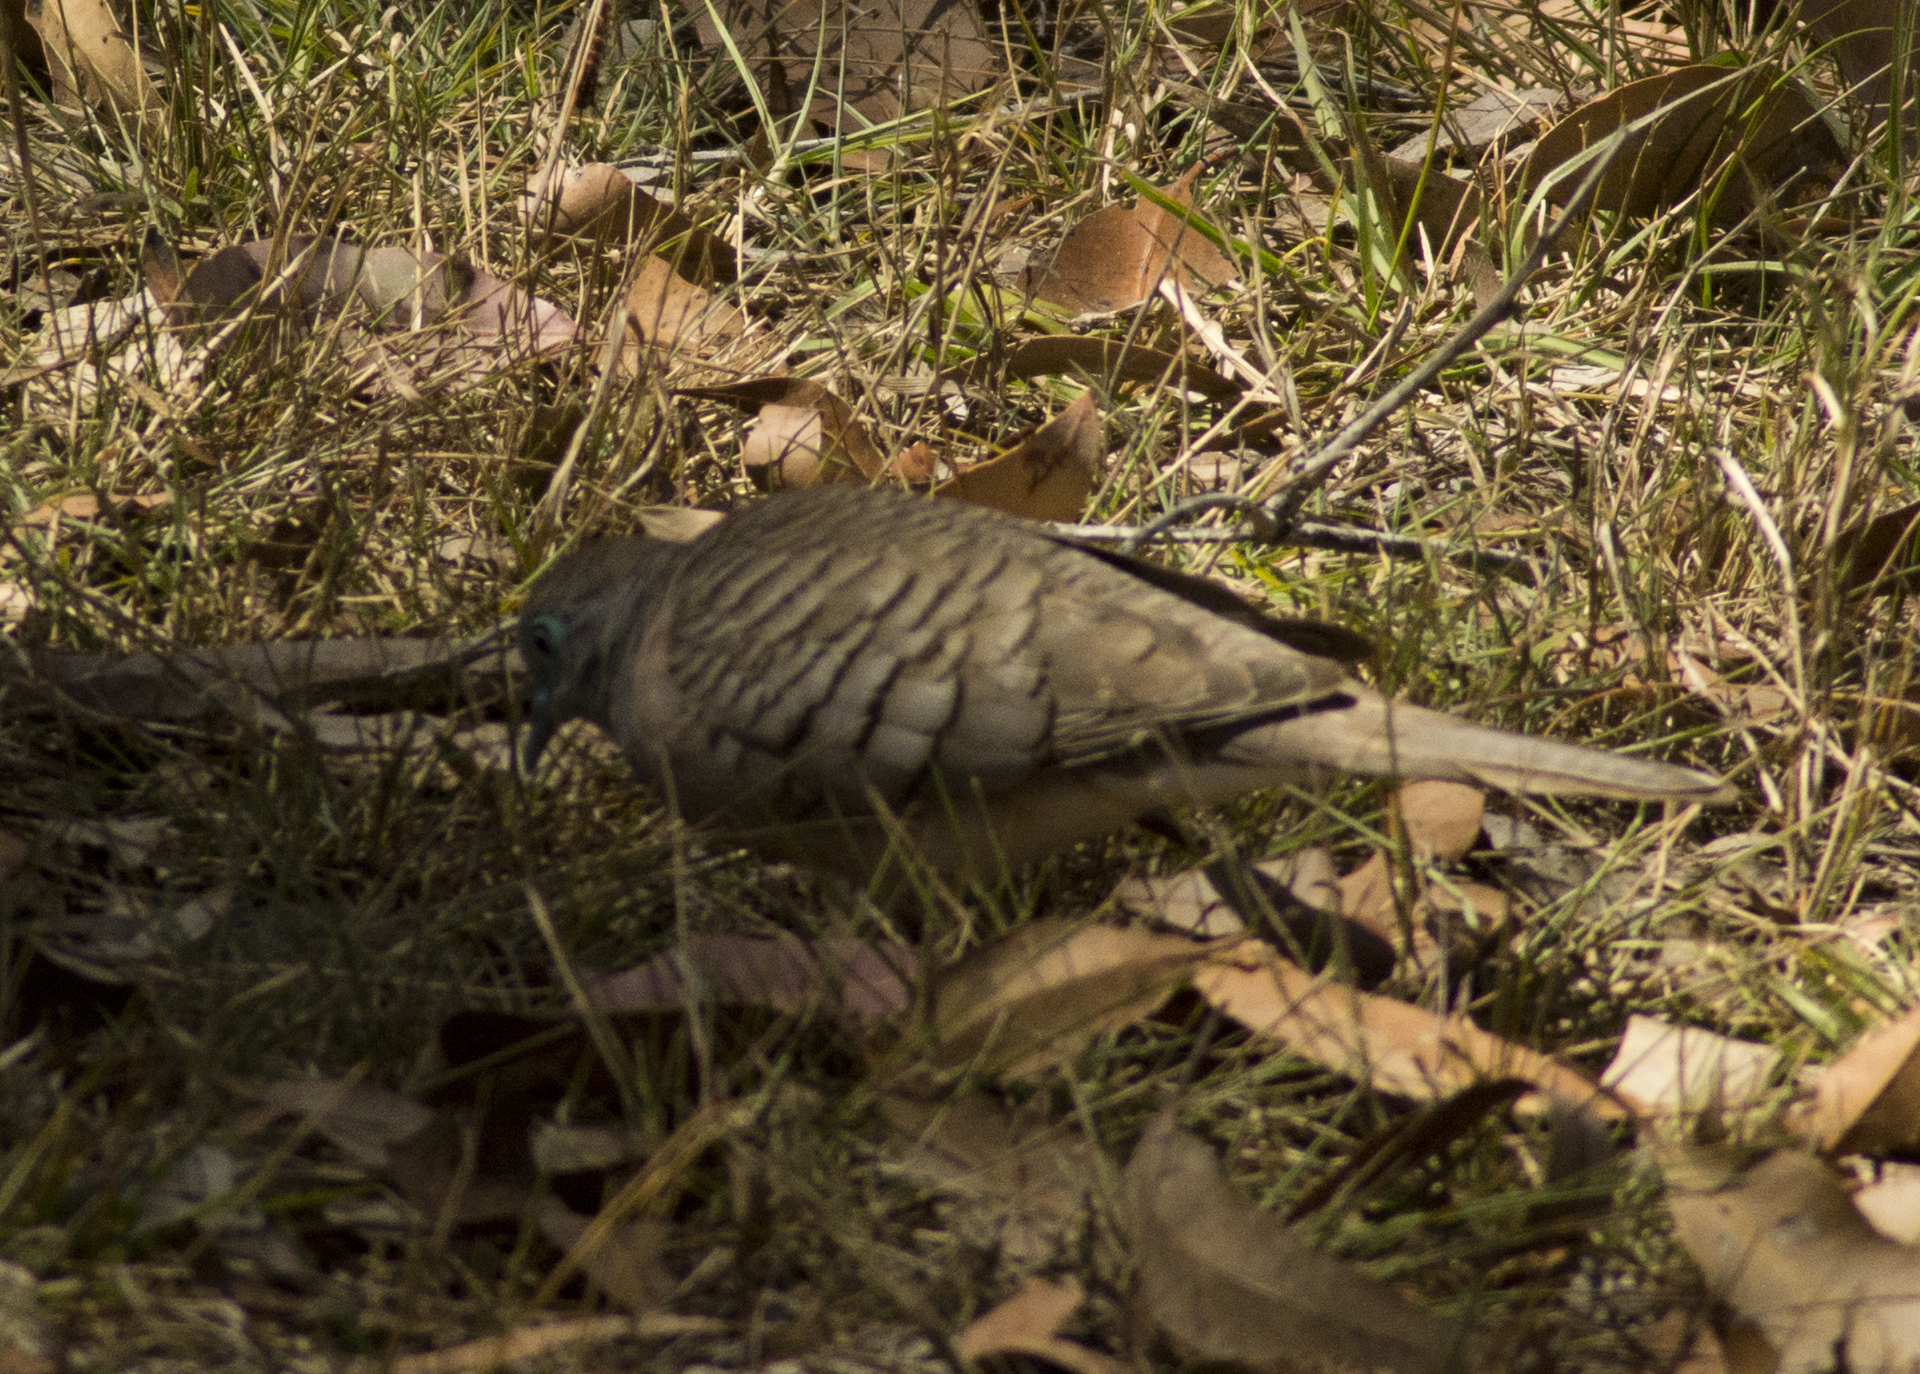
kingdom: Animalia
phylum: Chordata
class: Aves
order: Columbiformes
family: Columbidae
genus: Geopelia
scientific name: Geopelia placida
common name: Peaceful dove
